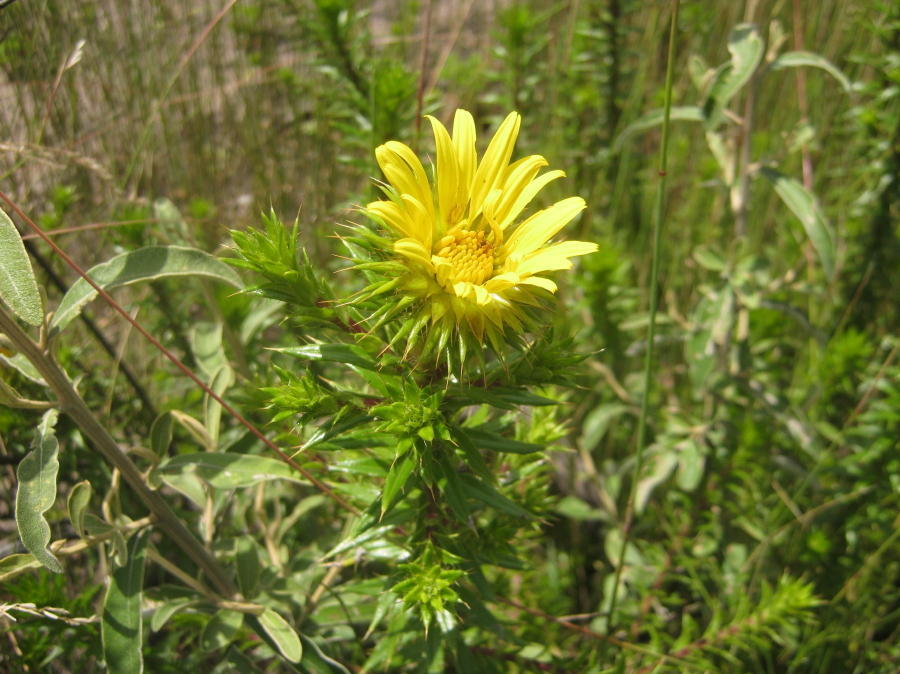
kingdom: Plantae
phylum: Tracheophyta
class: Magnoliopsida
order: Asterales
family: Asteraceae
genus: Cullumia
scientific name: Cullumia carlinoides
